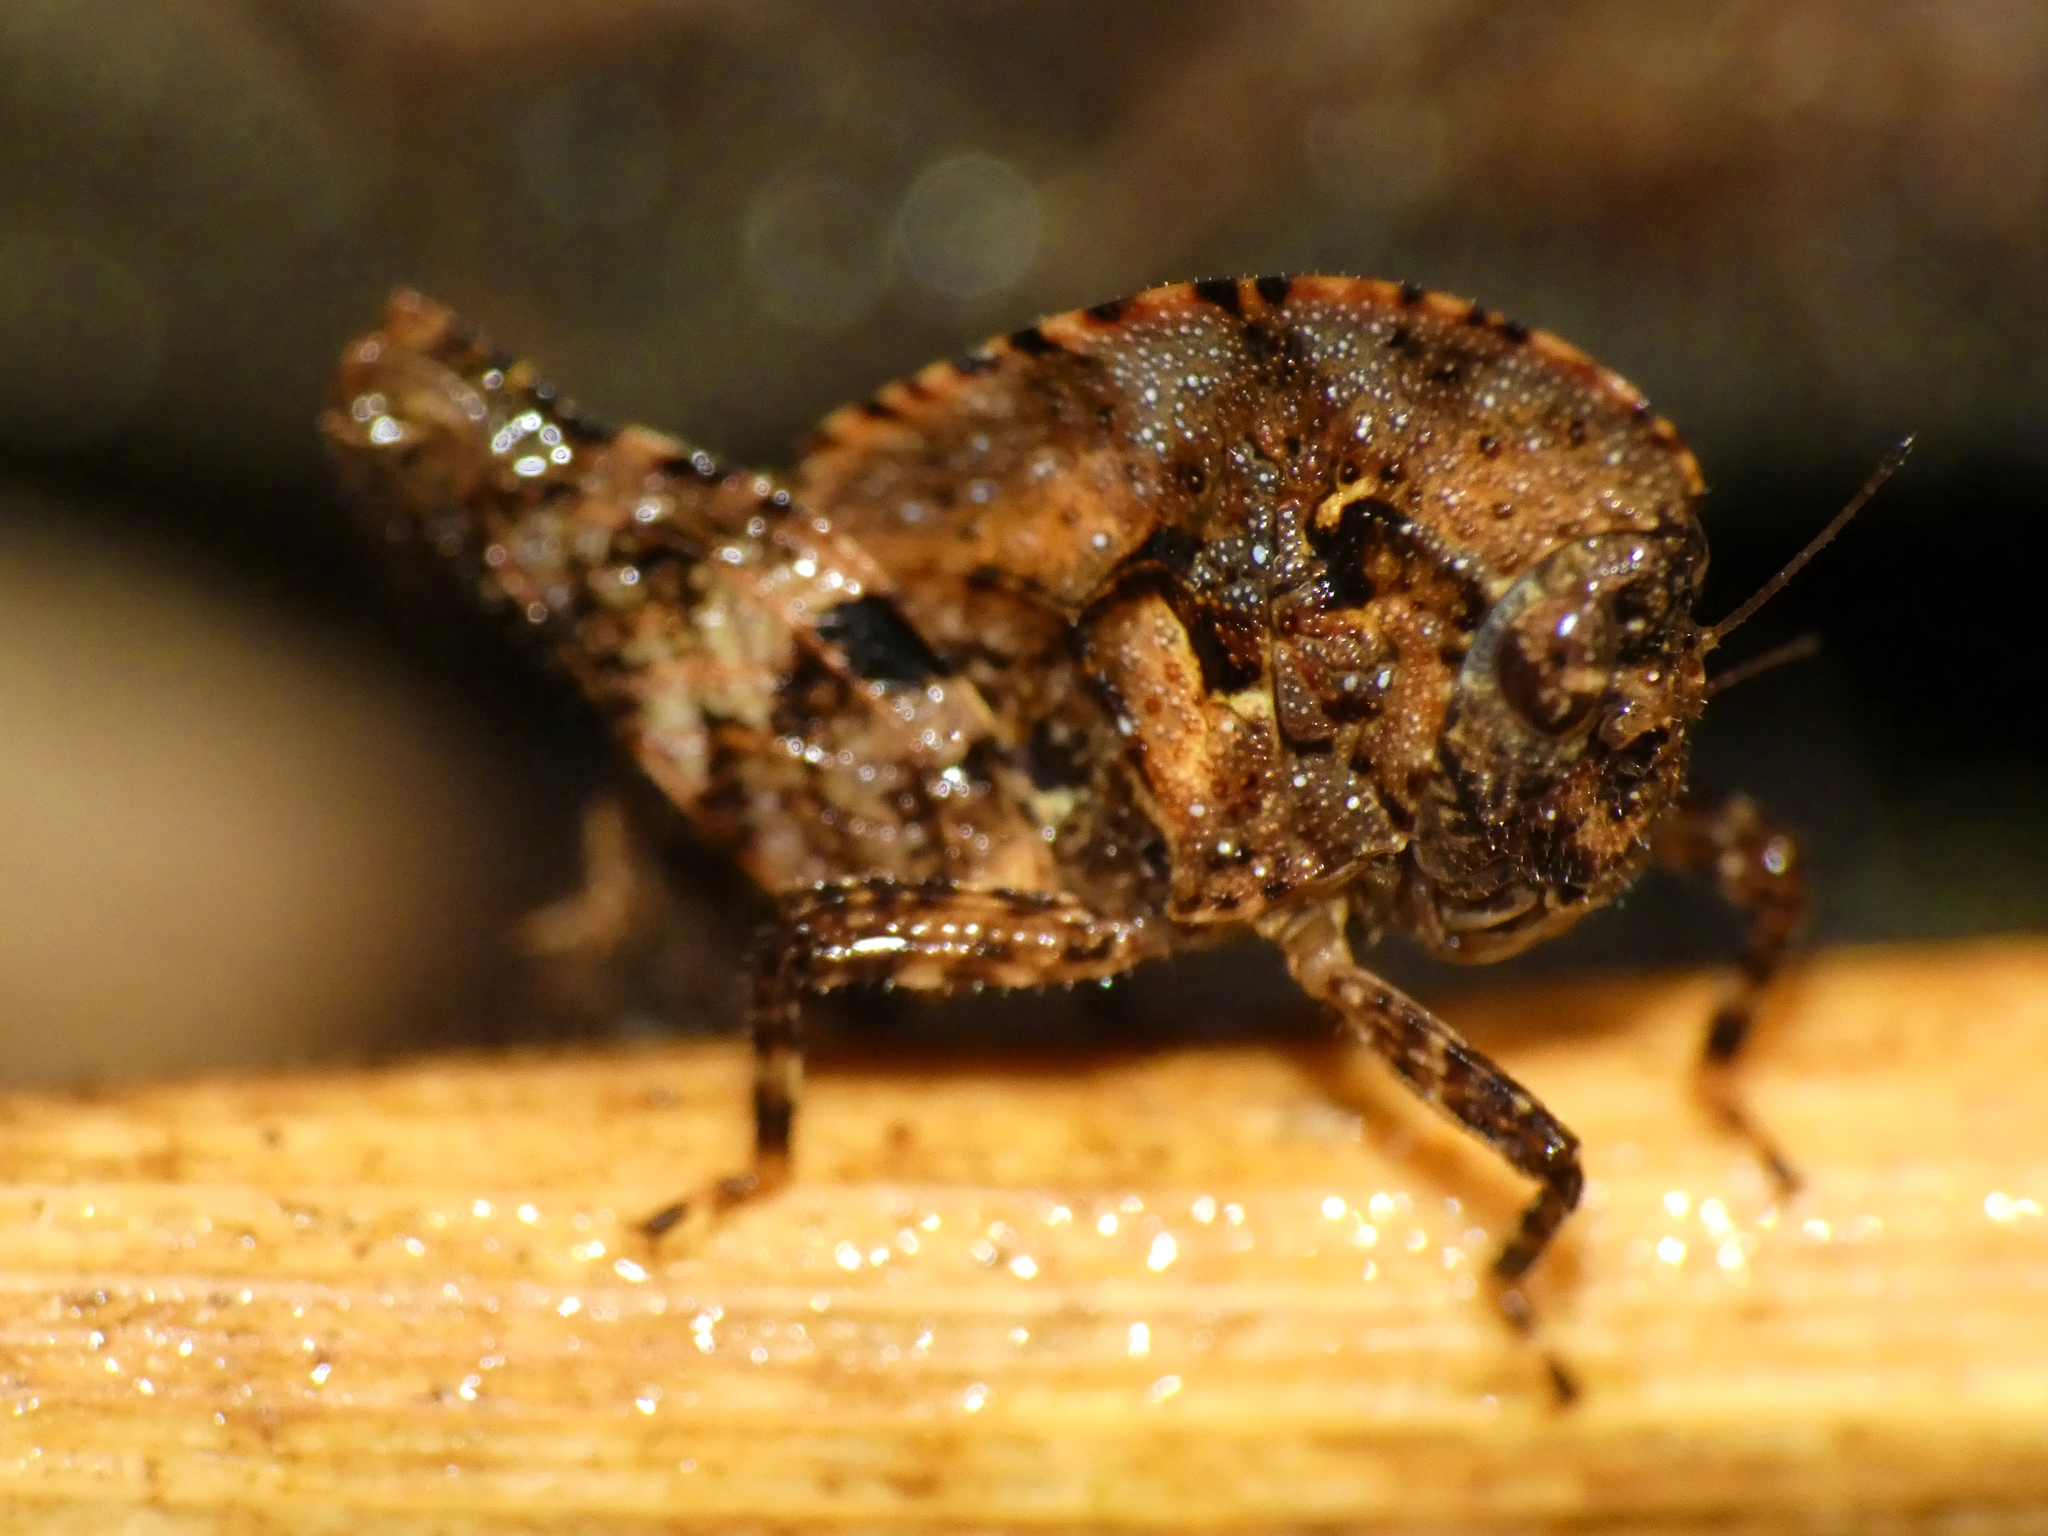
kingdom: Animalia
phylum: Arthropoda
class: Insecta
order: Orthoptera
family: Tetrigidae
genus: Selivinga
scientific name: Selivinga tribulata
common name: Tribulation helmed groundhopper
